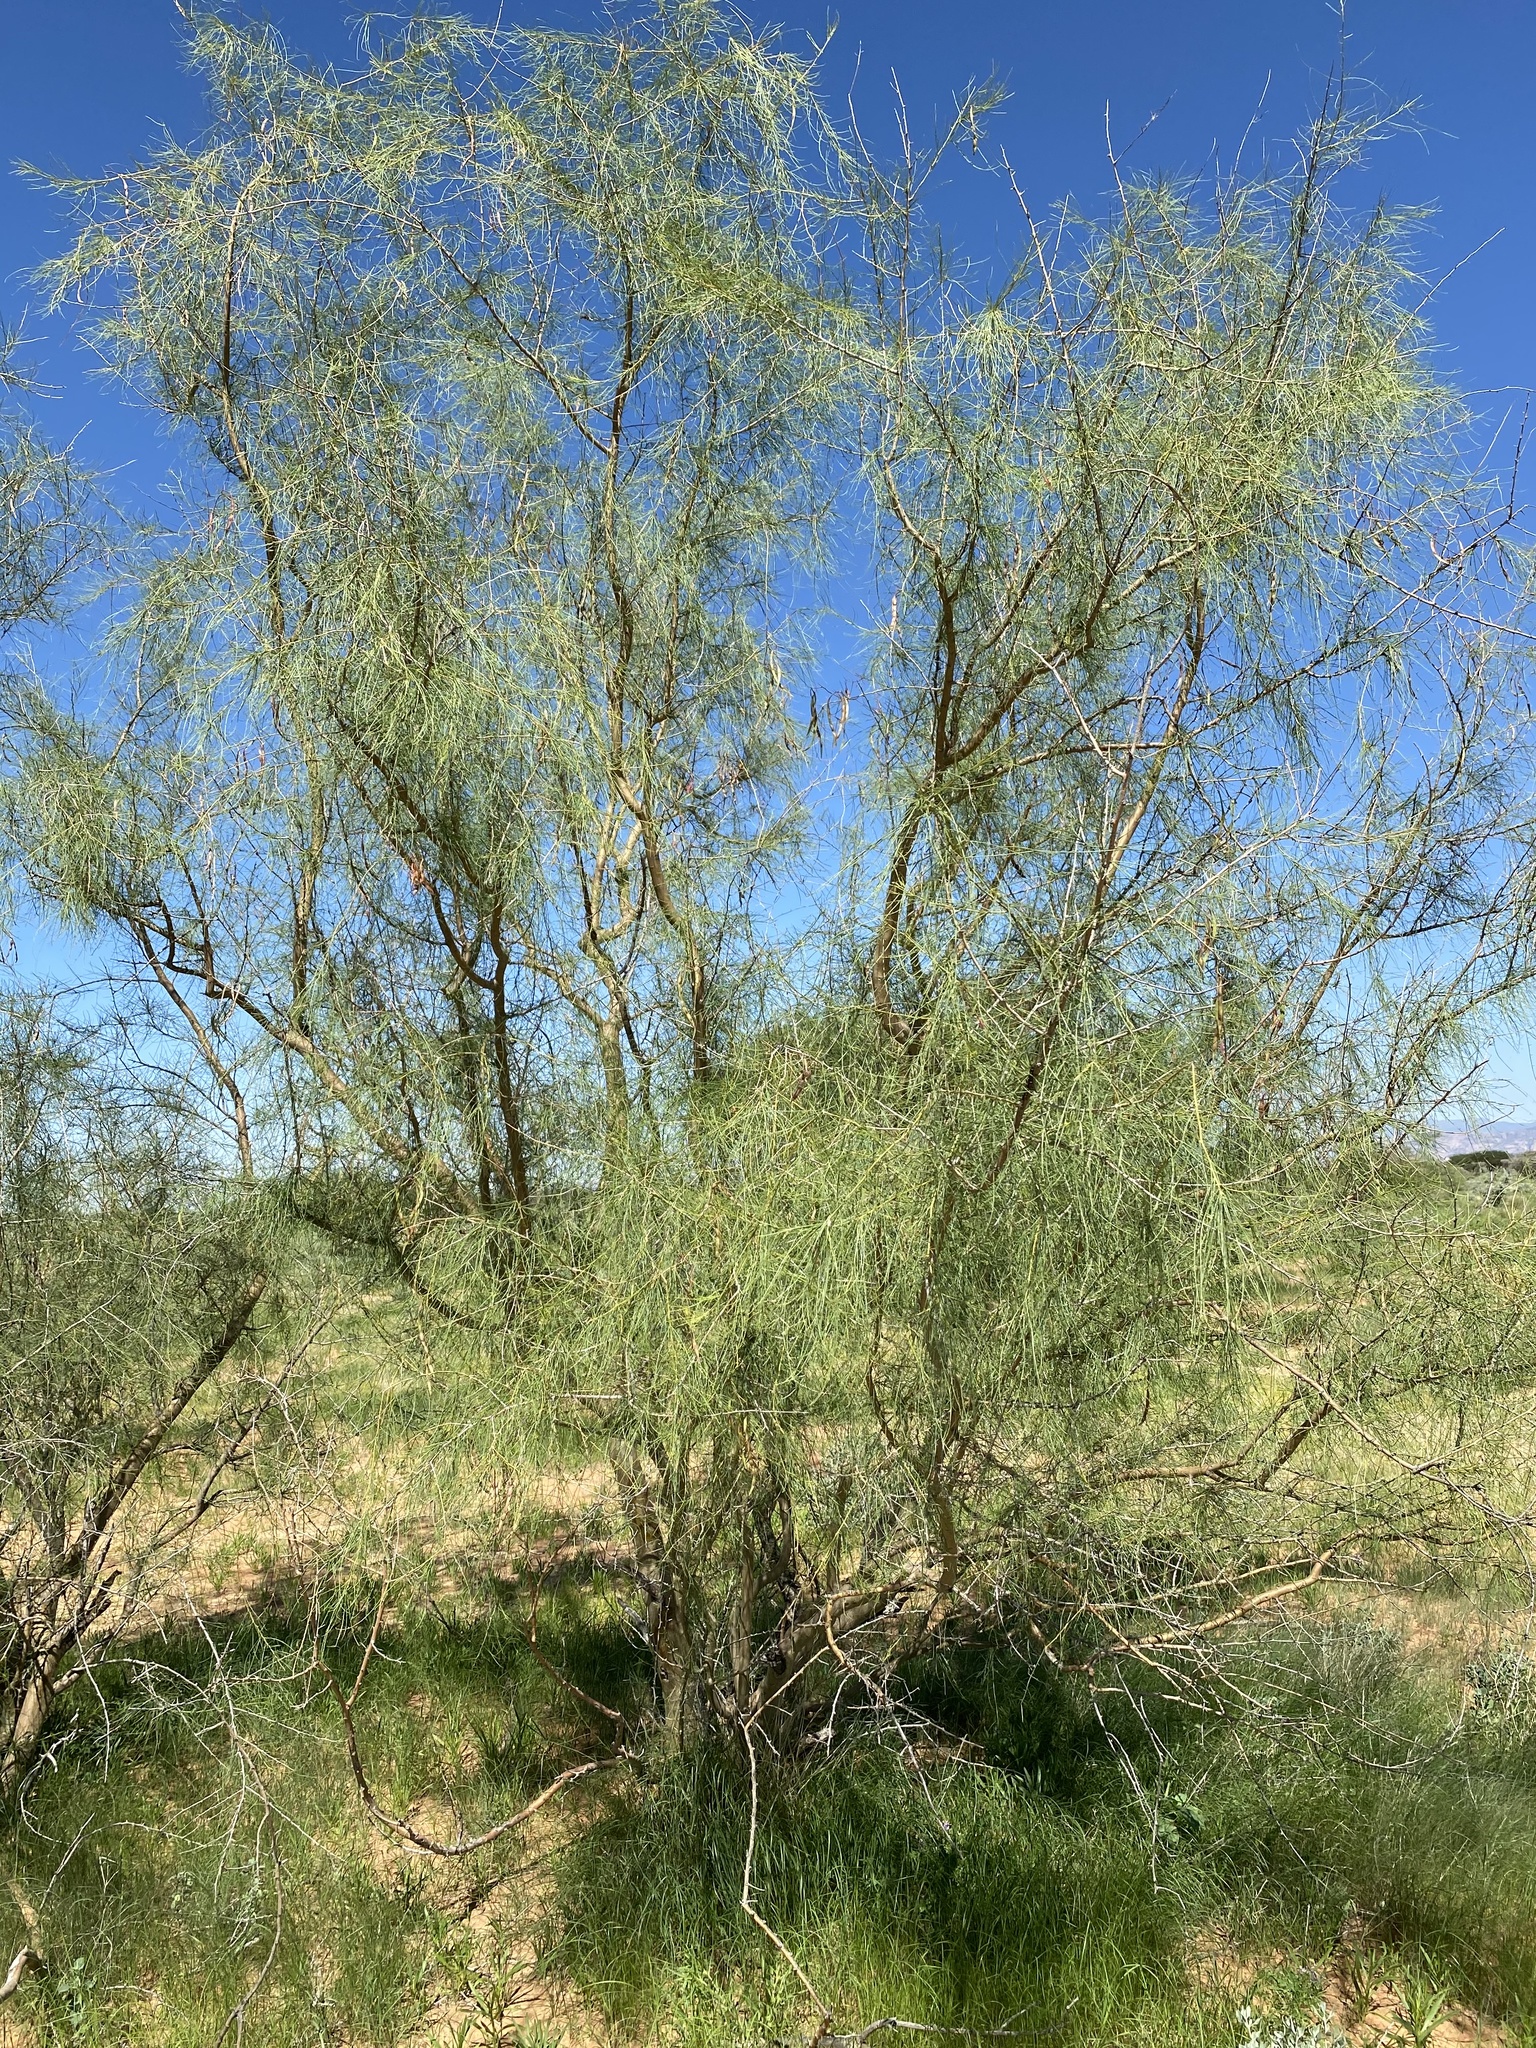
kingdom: Plantae
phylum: Tracheophyta
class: Magnoliopsida
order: Fabales
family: Fabaceae
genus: Parkinsonia
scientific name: Parkinsonia africana
